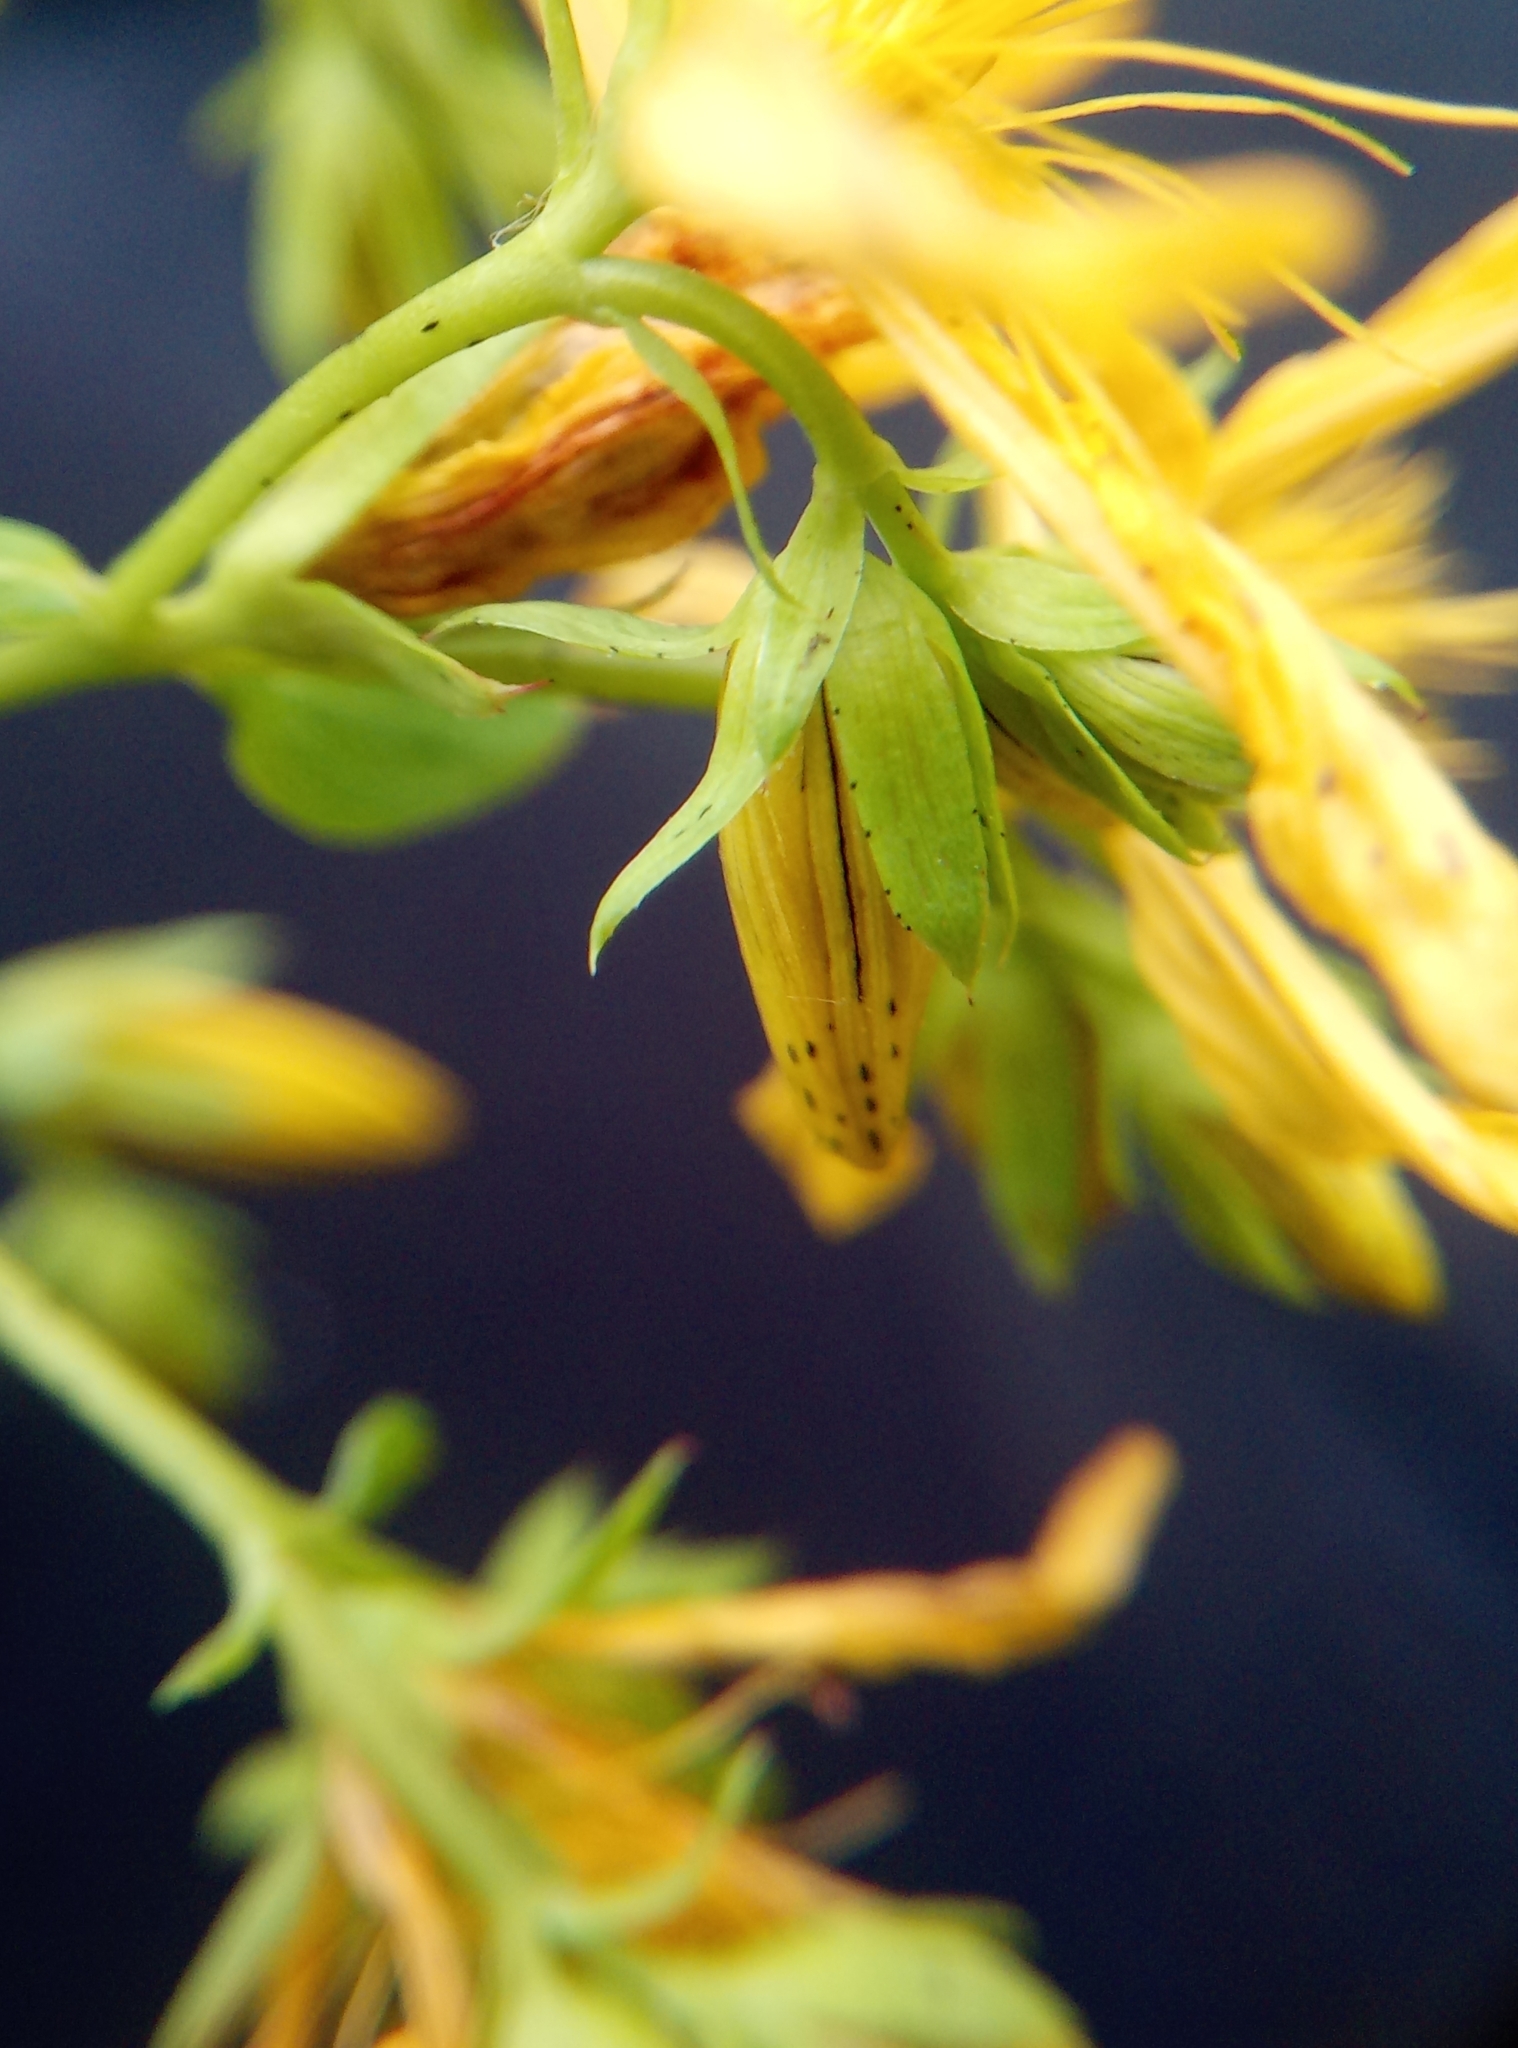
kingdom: Plantae
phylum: Tracheophyta
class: Magnoliopsida
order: Malpighiales
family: Hypericaceae
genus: Hypericum
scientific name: Hypericum perforatum
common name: Common st. johnswort
